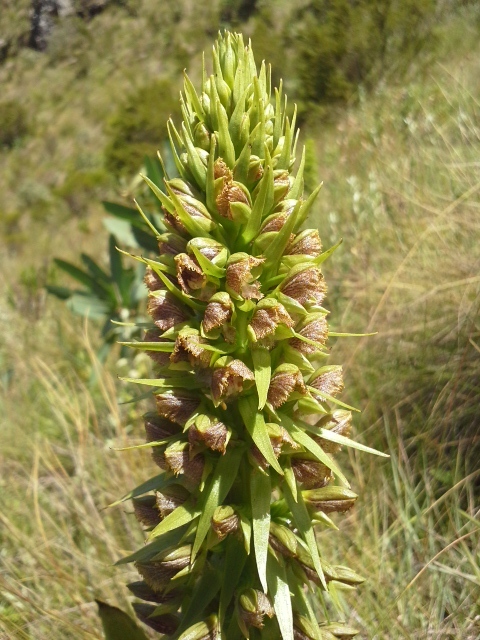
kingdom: Plantae
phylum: Tracheophyta
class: Liliopsida
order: Asparagales
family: Orchidaceae
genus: Pterygodium
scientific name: Pterygodium magnum
